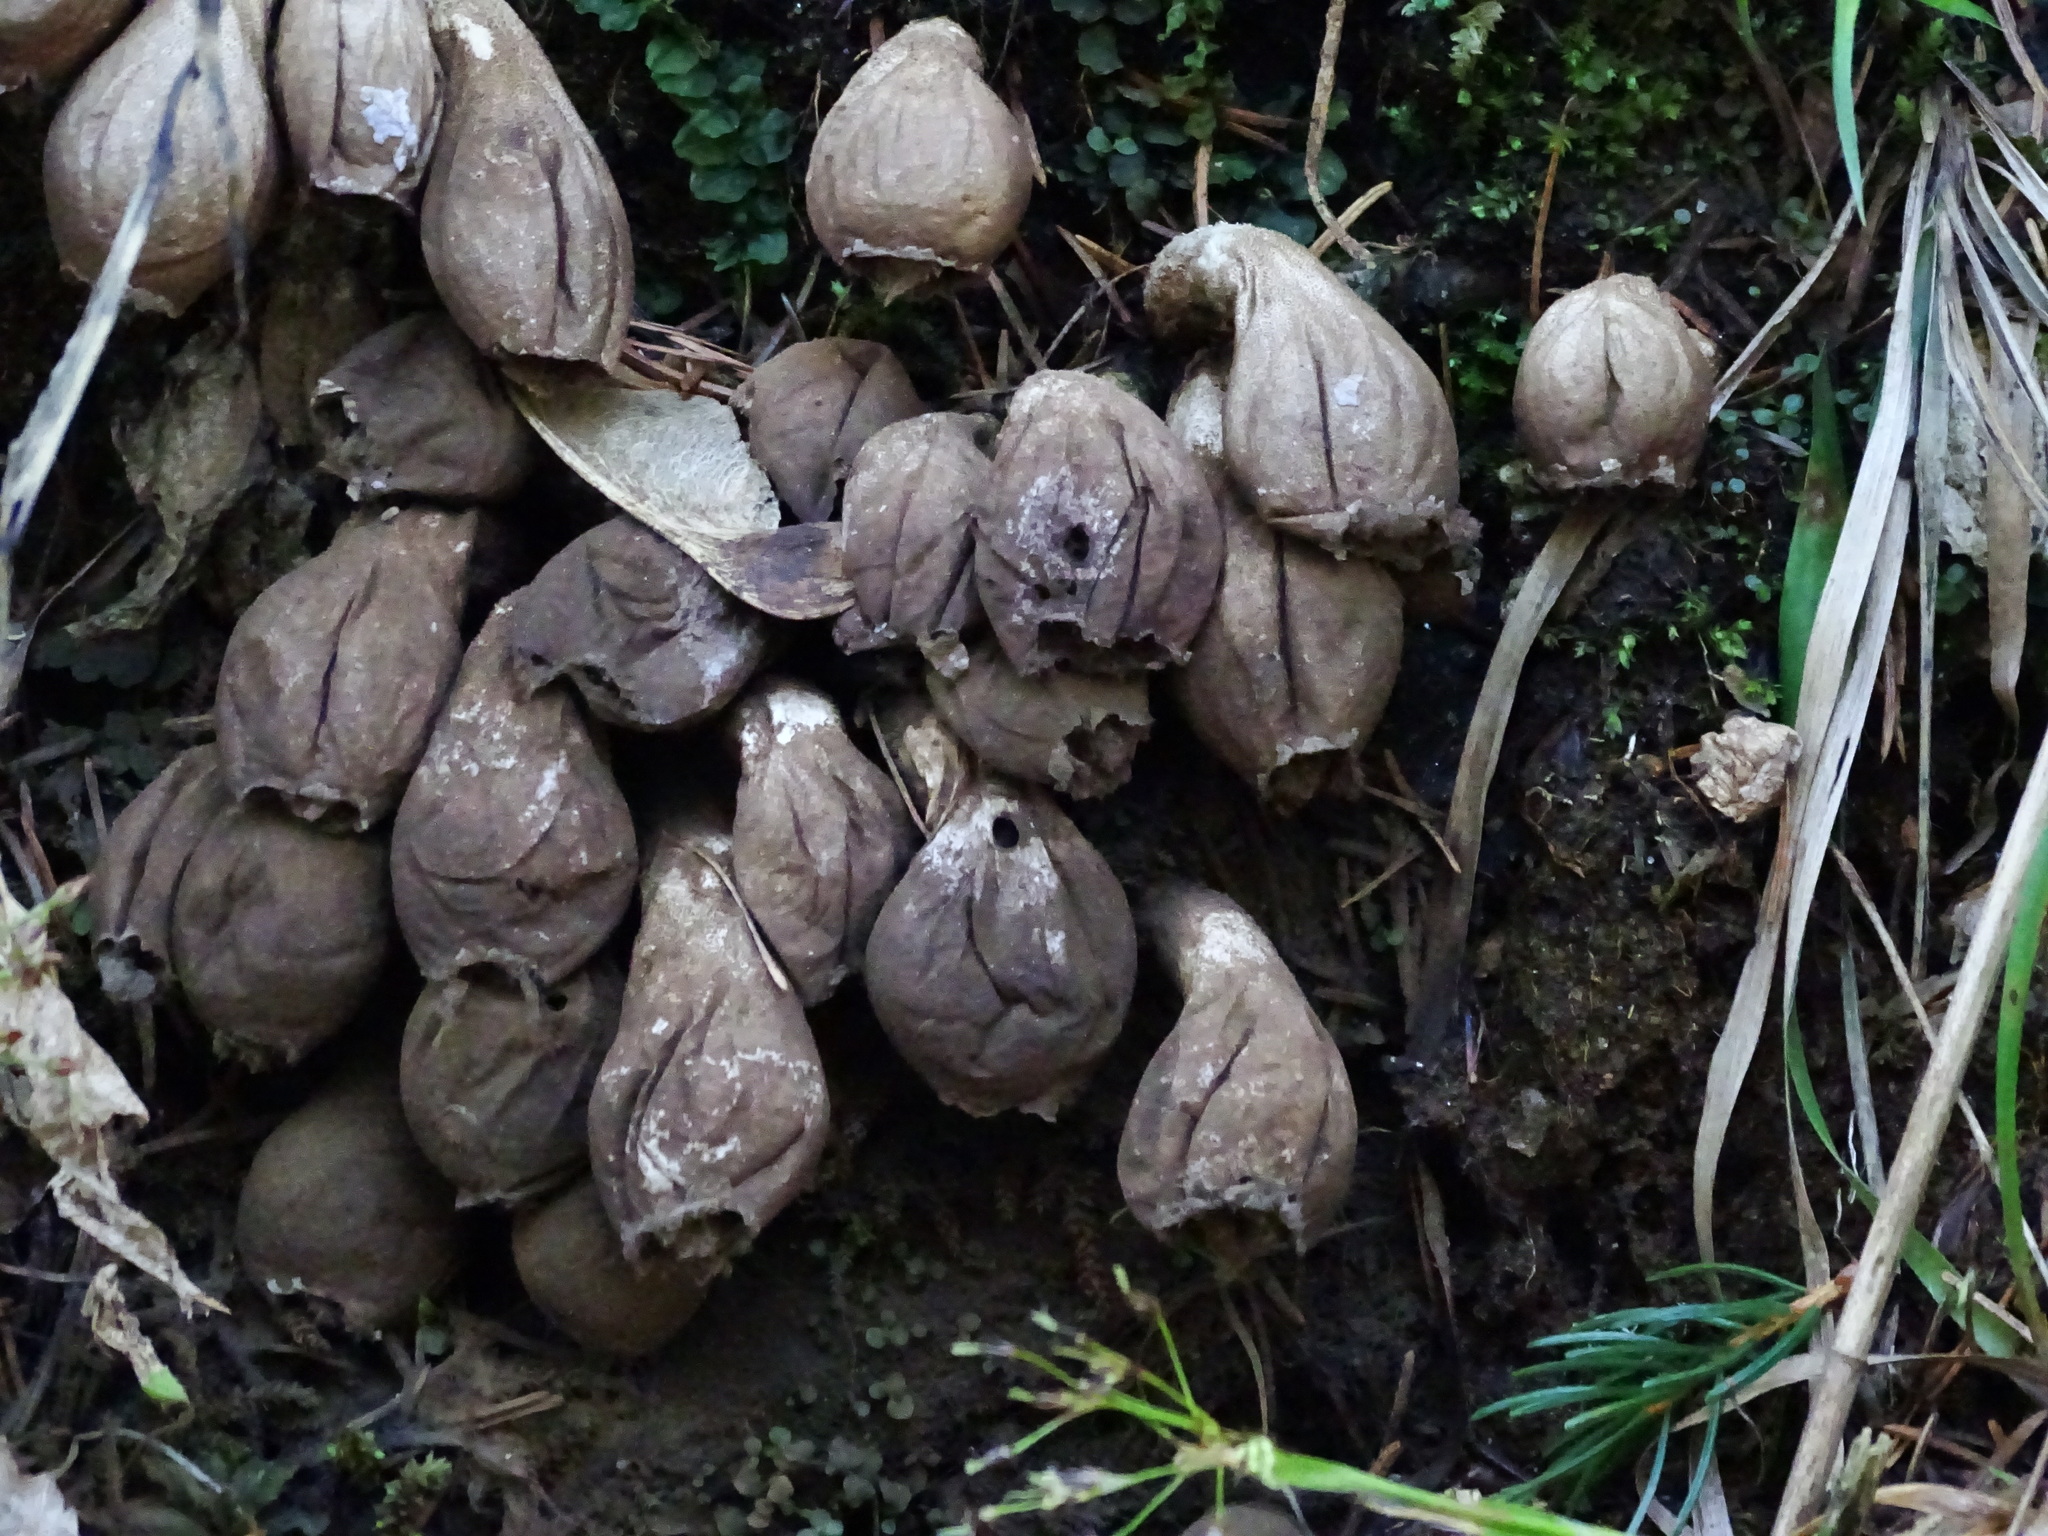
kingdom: Fungi
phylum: Basidiomycota
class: Agaricomycetes
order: Agaricales
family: Lycoperdaceae
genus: Apioperdon
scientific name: Apioperdon pyriforme
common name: Pear-shaped puffball
